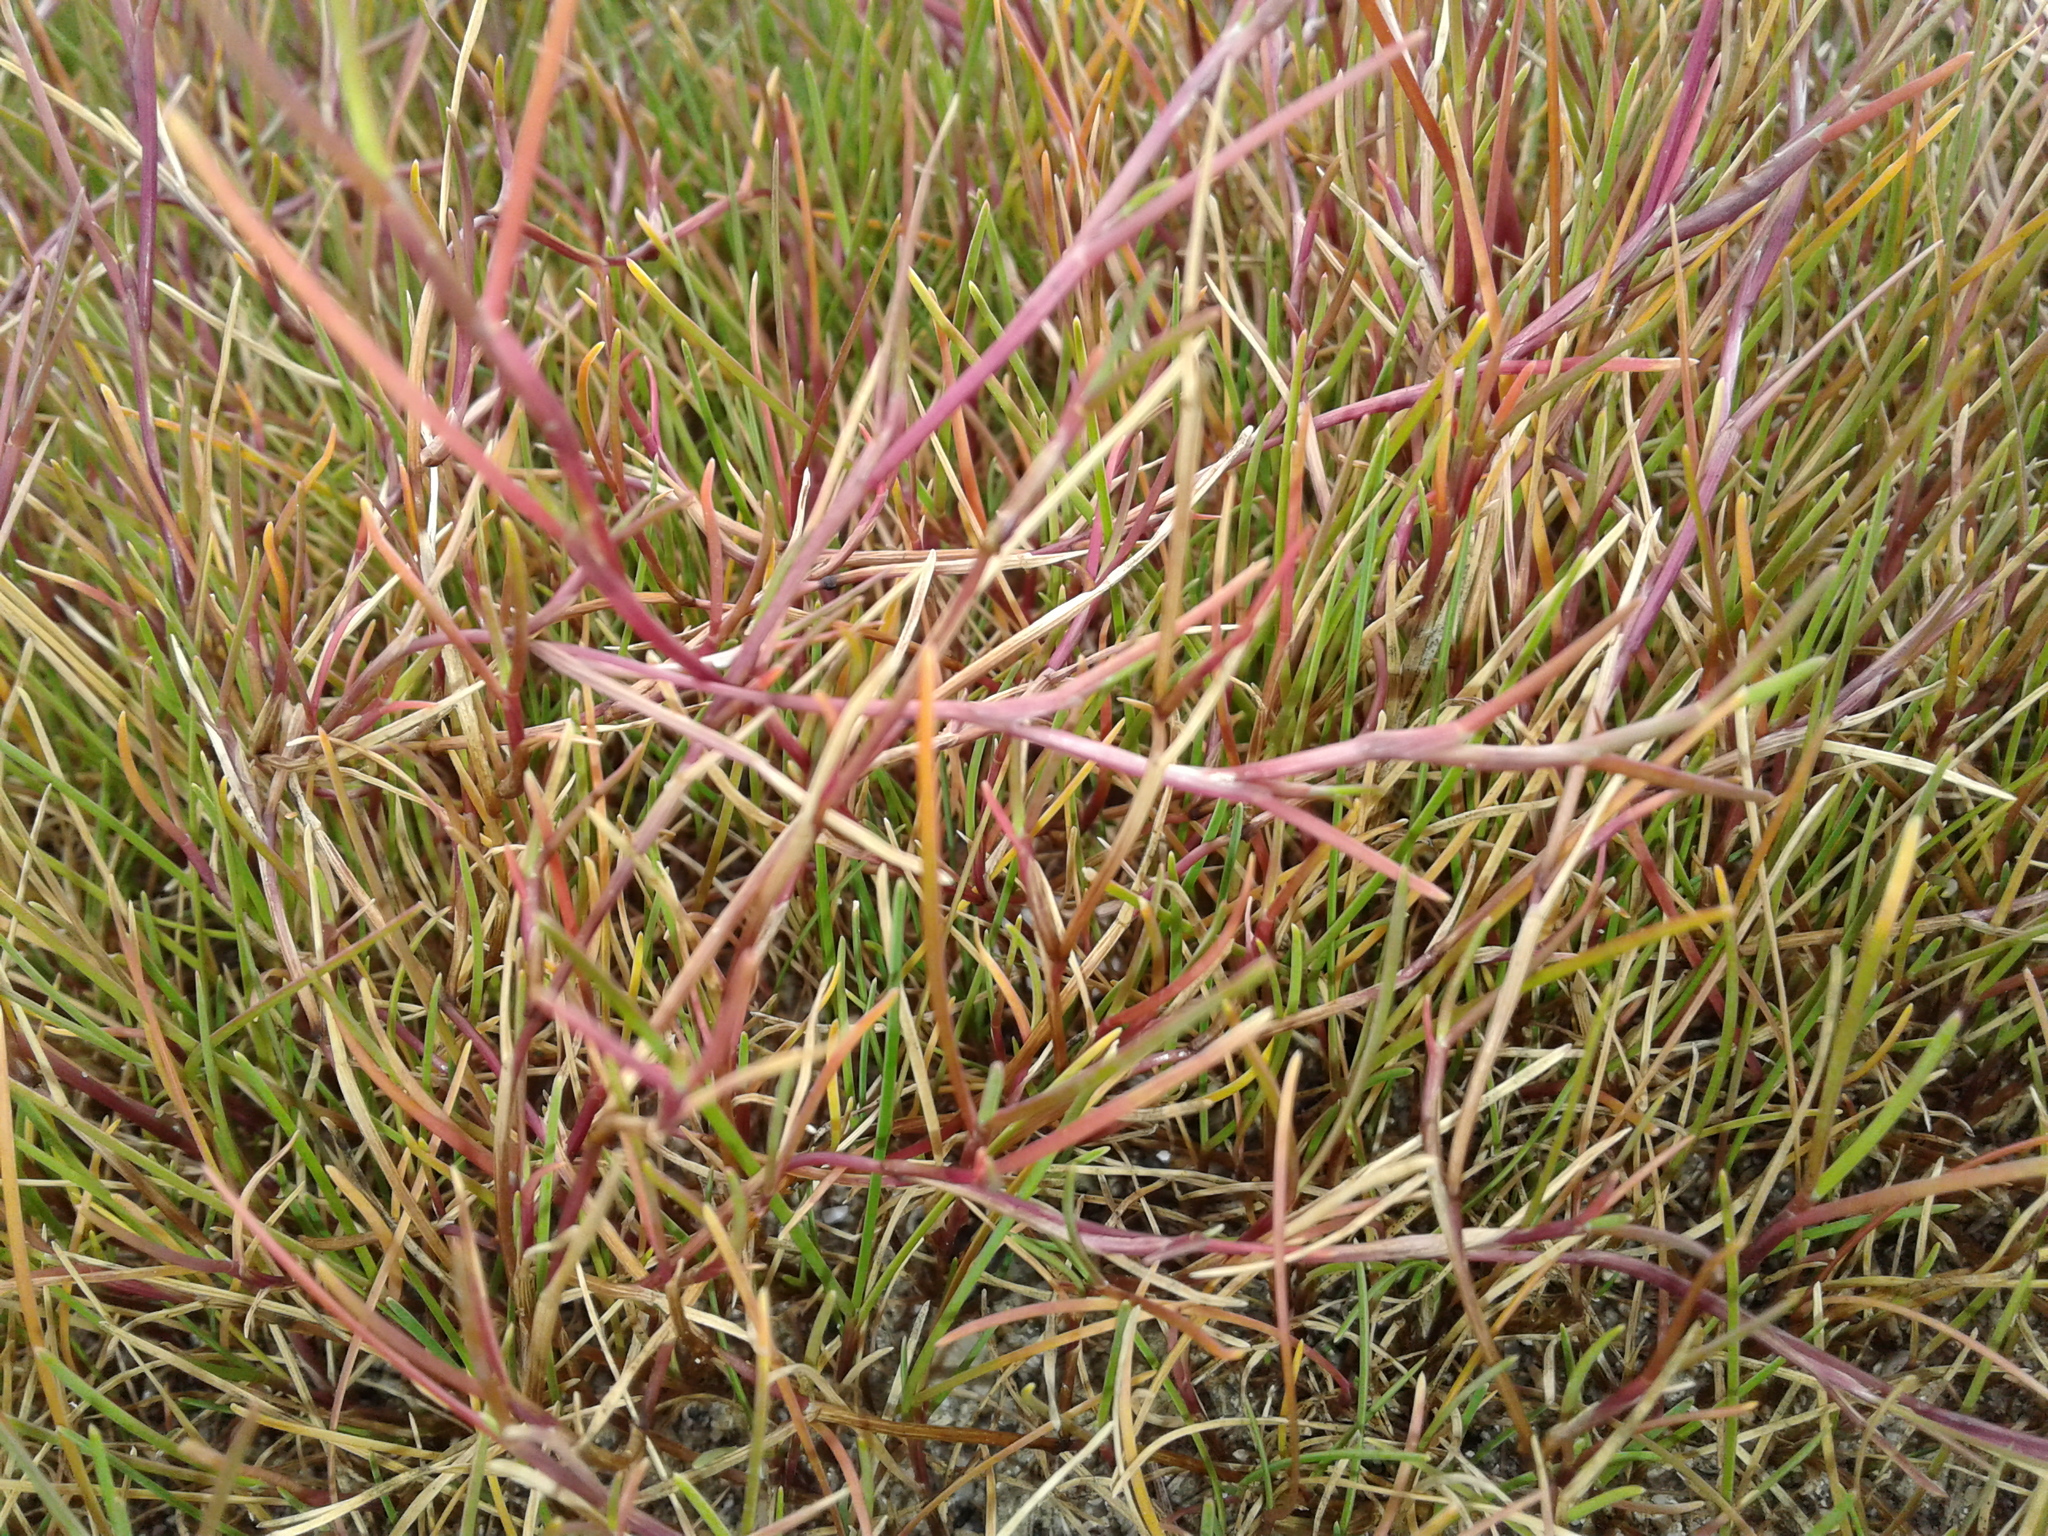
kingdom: Plantae
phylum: Tracheophyta
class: Liliopsida
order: Poales
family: Poaceae
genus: Puccinellia
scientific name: Puccinellia phryganodes
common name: Creeping alkaligrass
